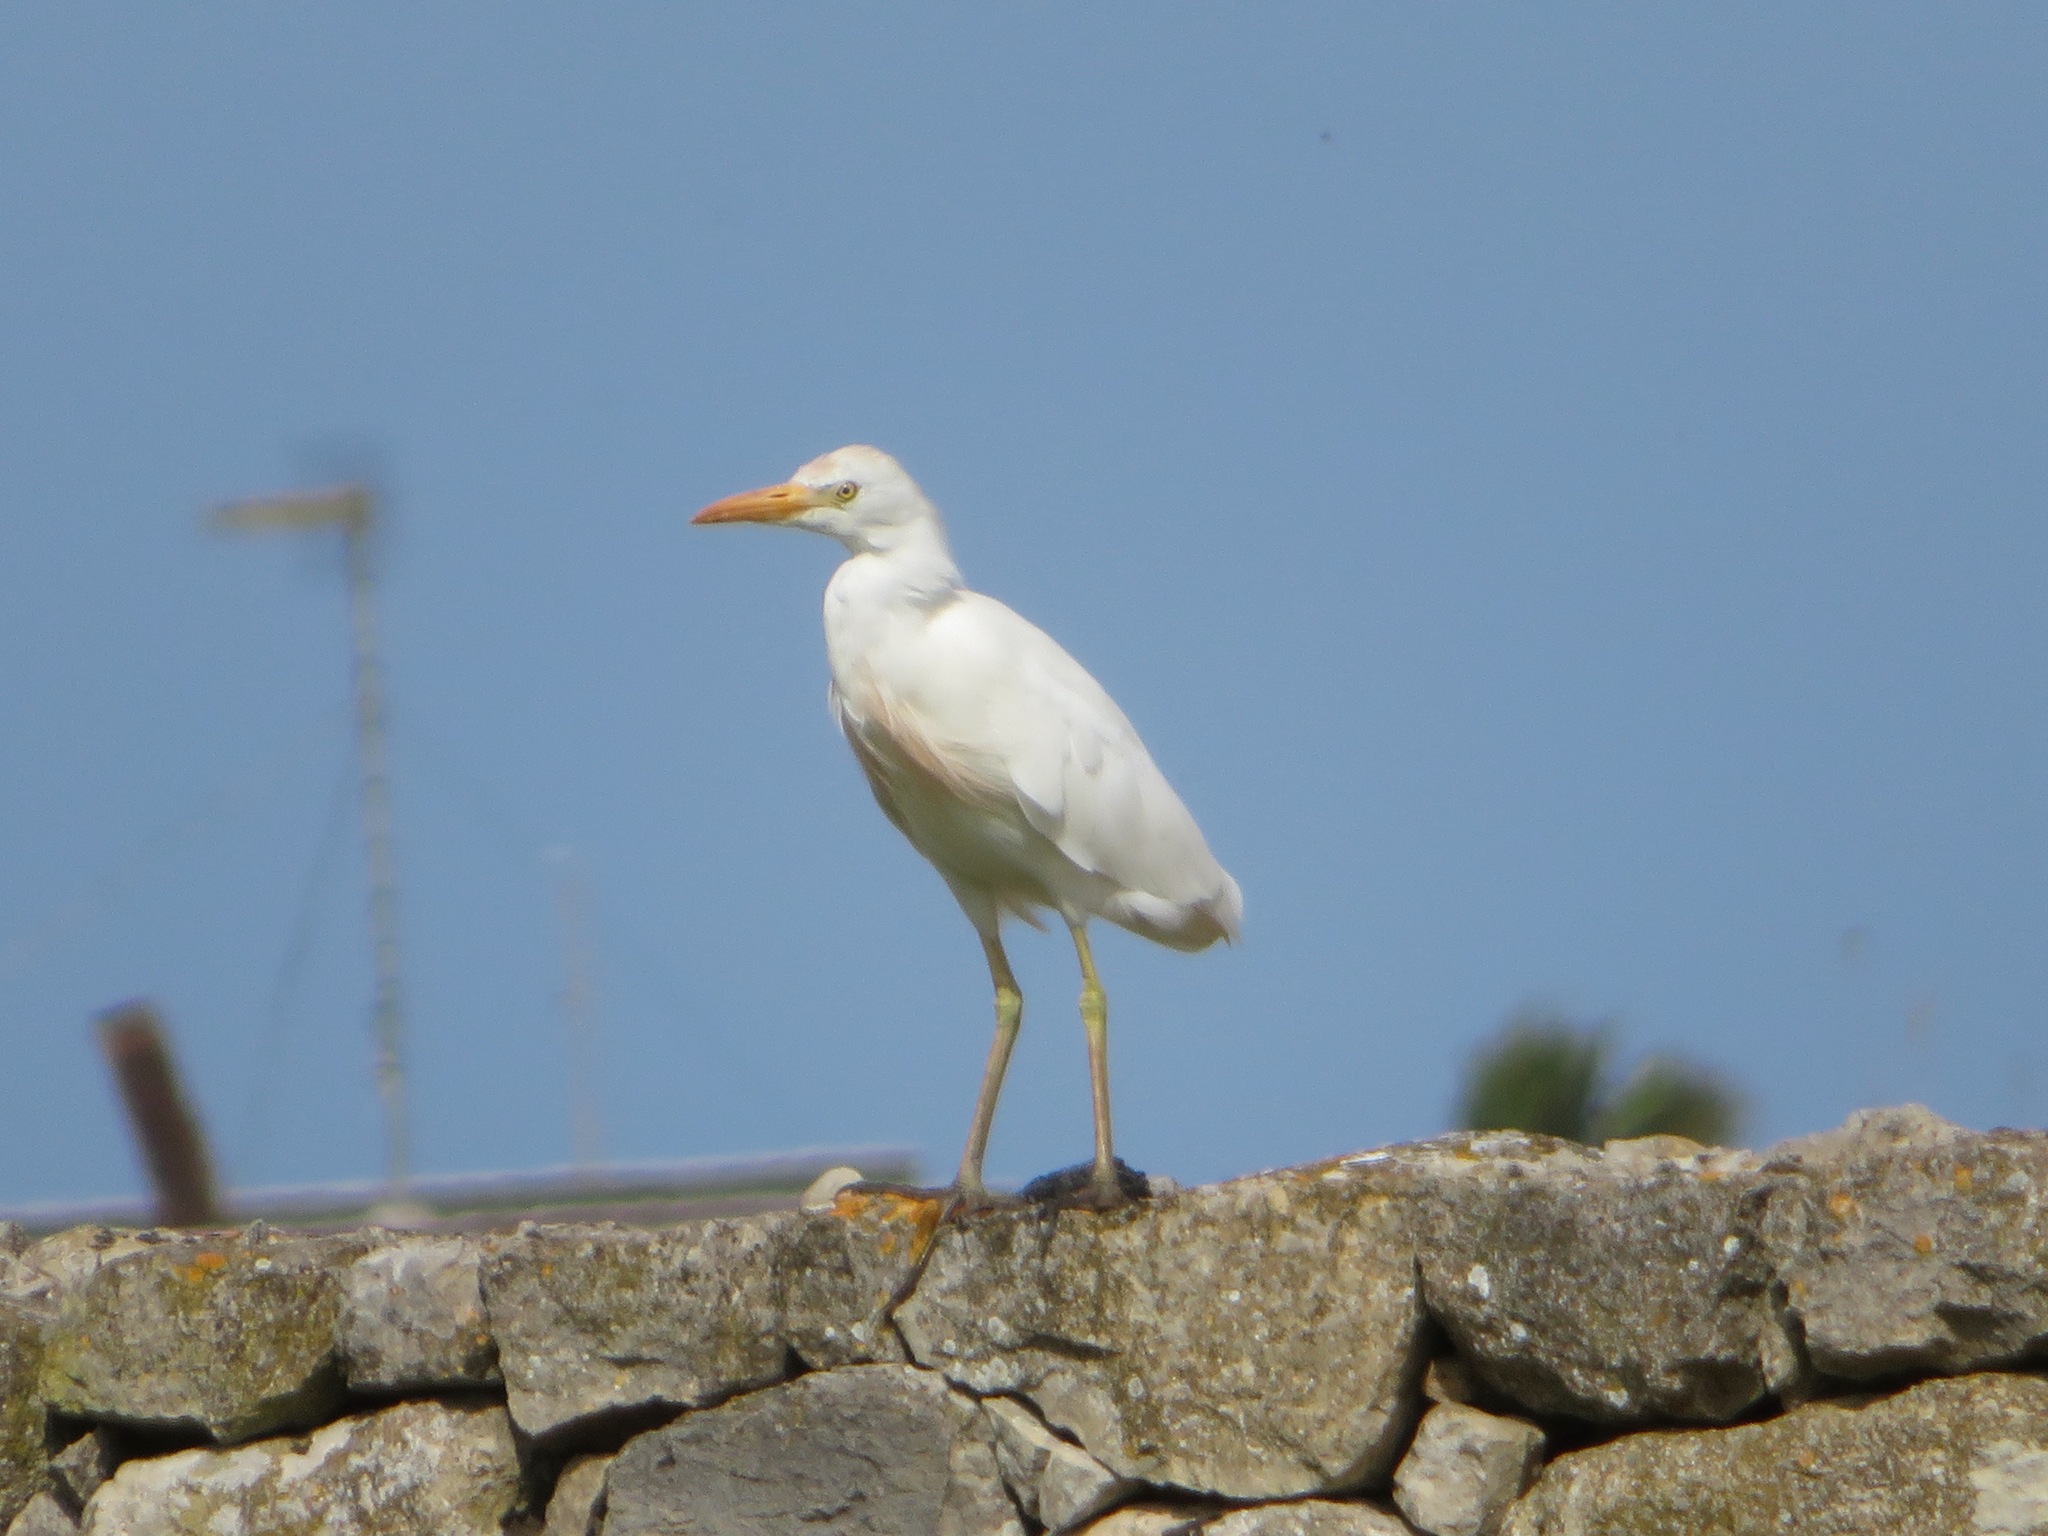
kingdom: Animalia
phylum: Chordata
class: Aves
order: Pelecaniformes
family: Ardeidae
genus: Bubulcus
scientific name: Bubulcus ibis
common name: Cattle egret
